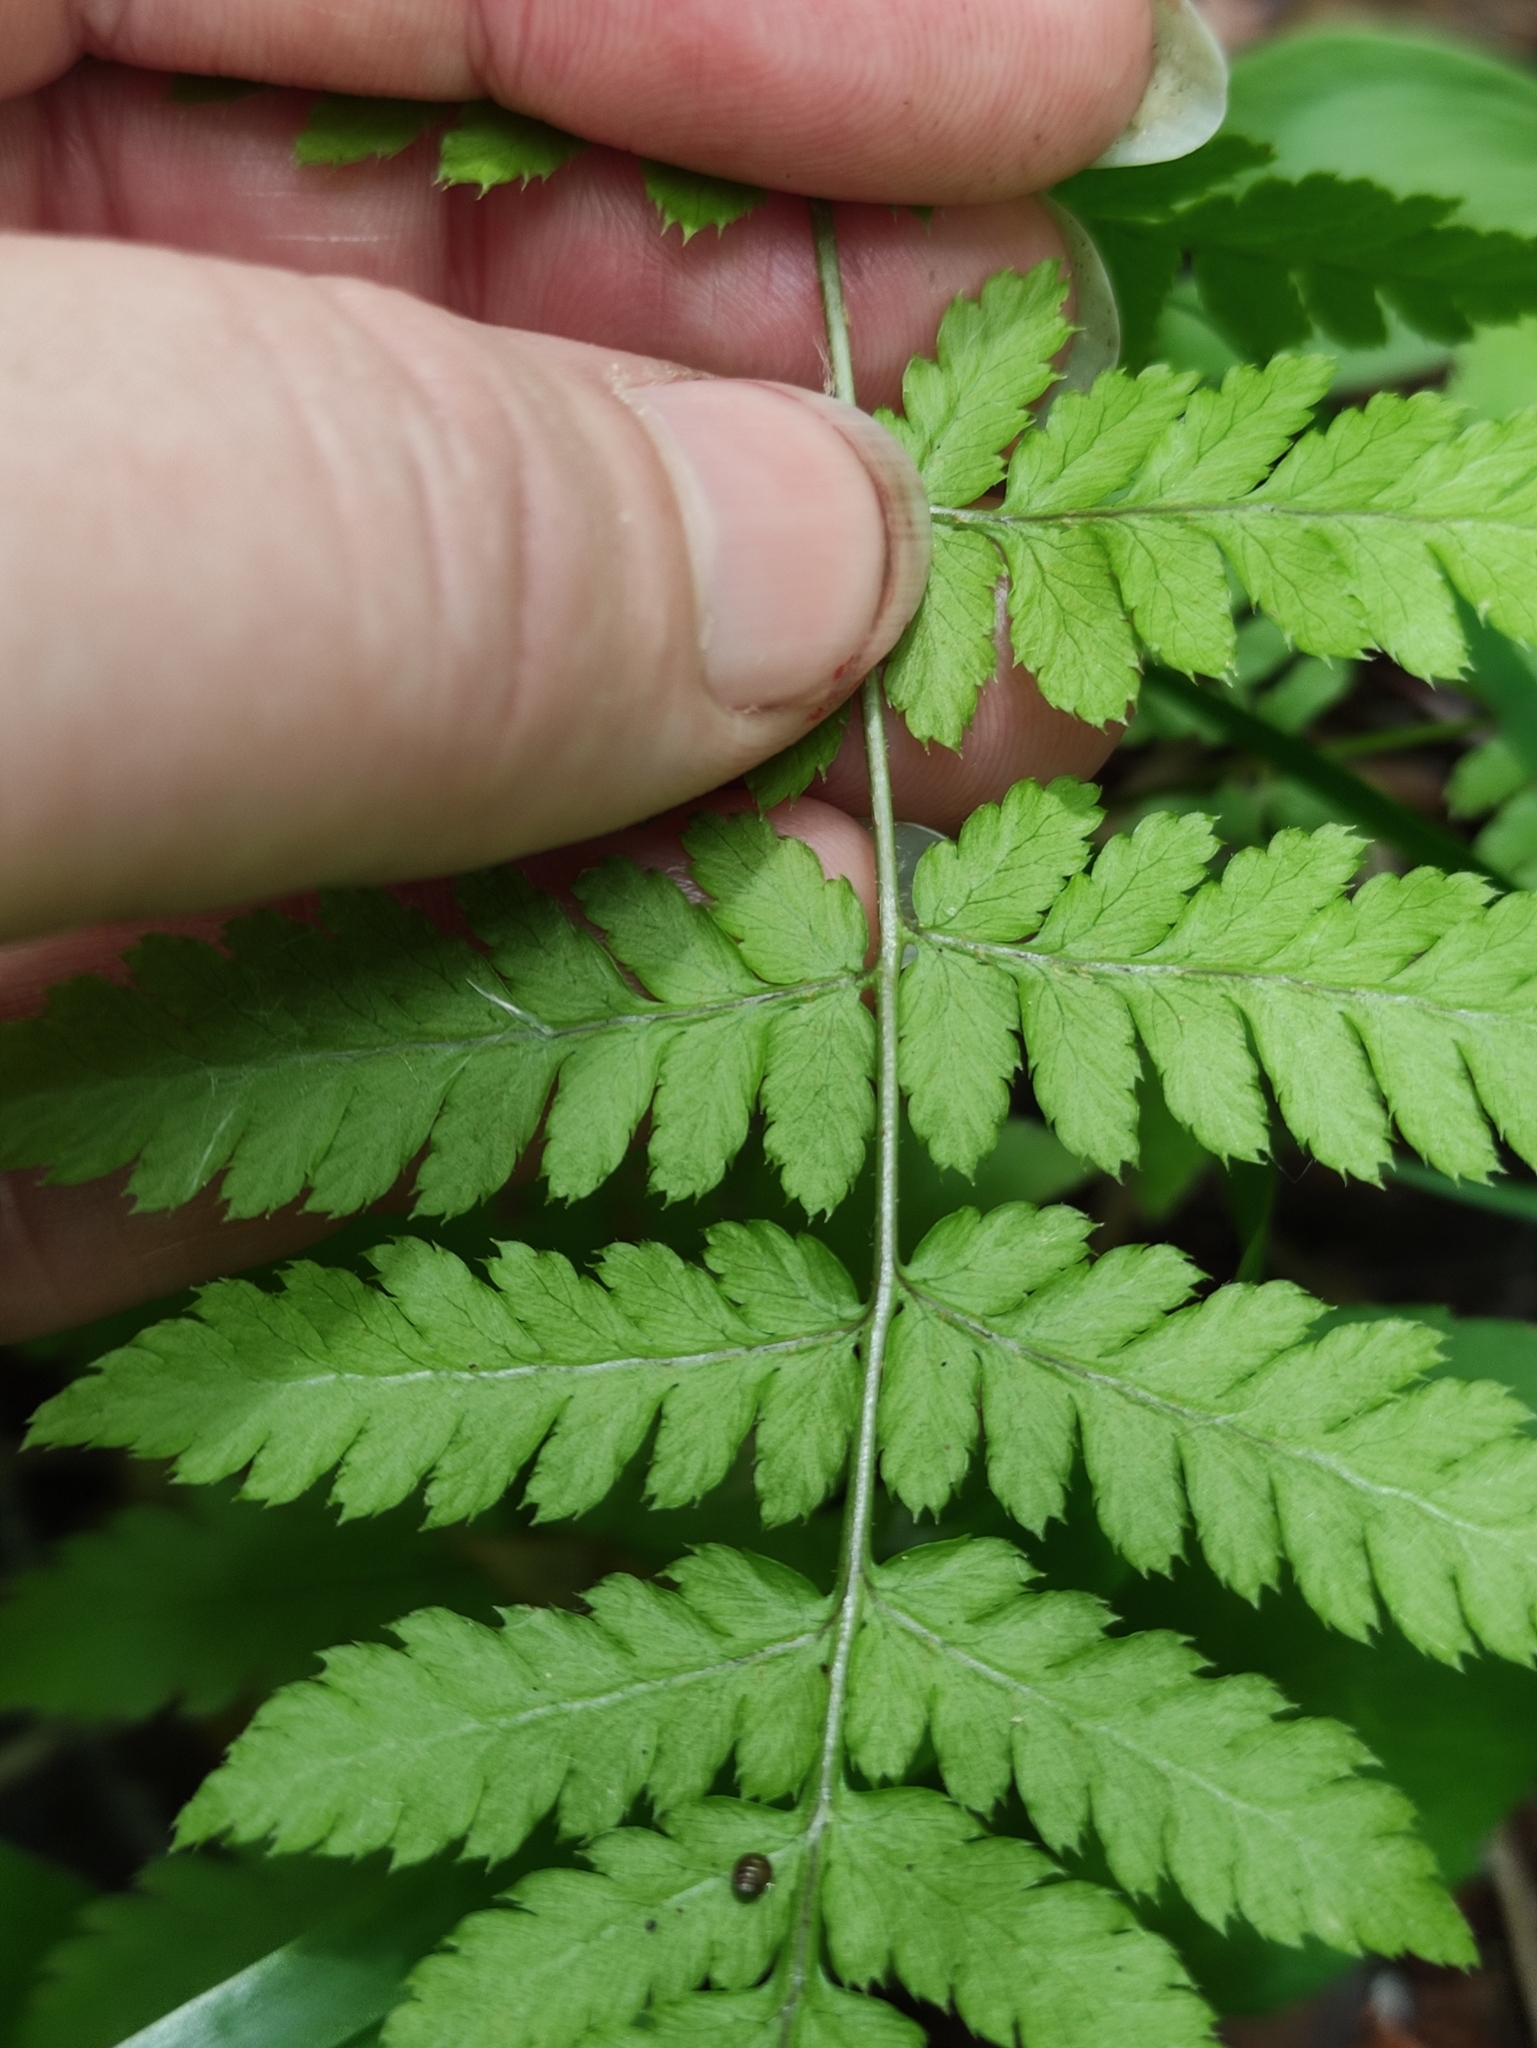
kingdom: Plantae
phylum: Tracheophyta
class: Polypodiopsida
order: Polypodiales
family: Cystopteridaceae
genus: Gymnocarpium
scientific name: Gymnocarpium dryopteris
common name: Oak fern
